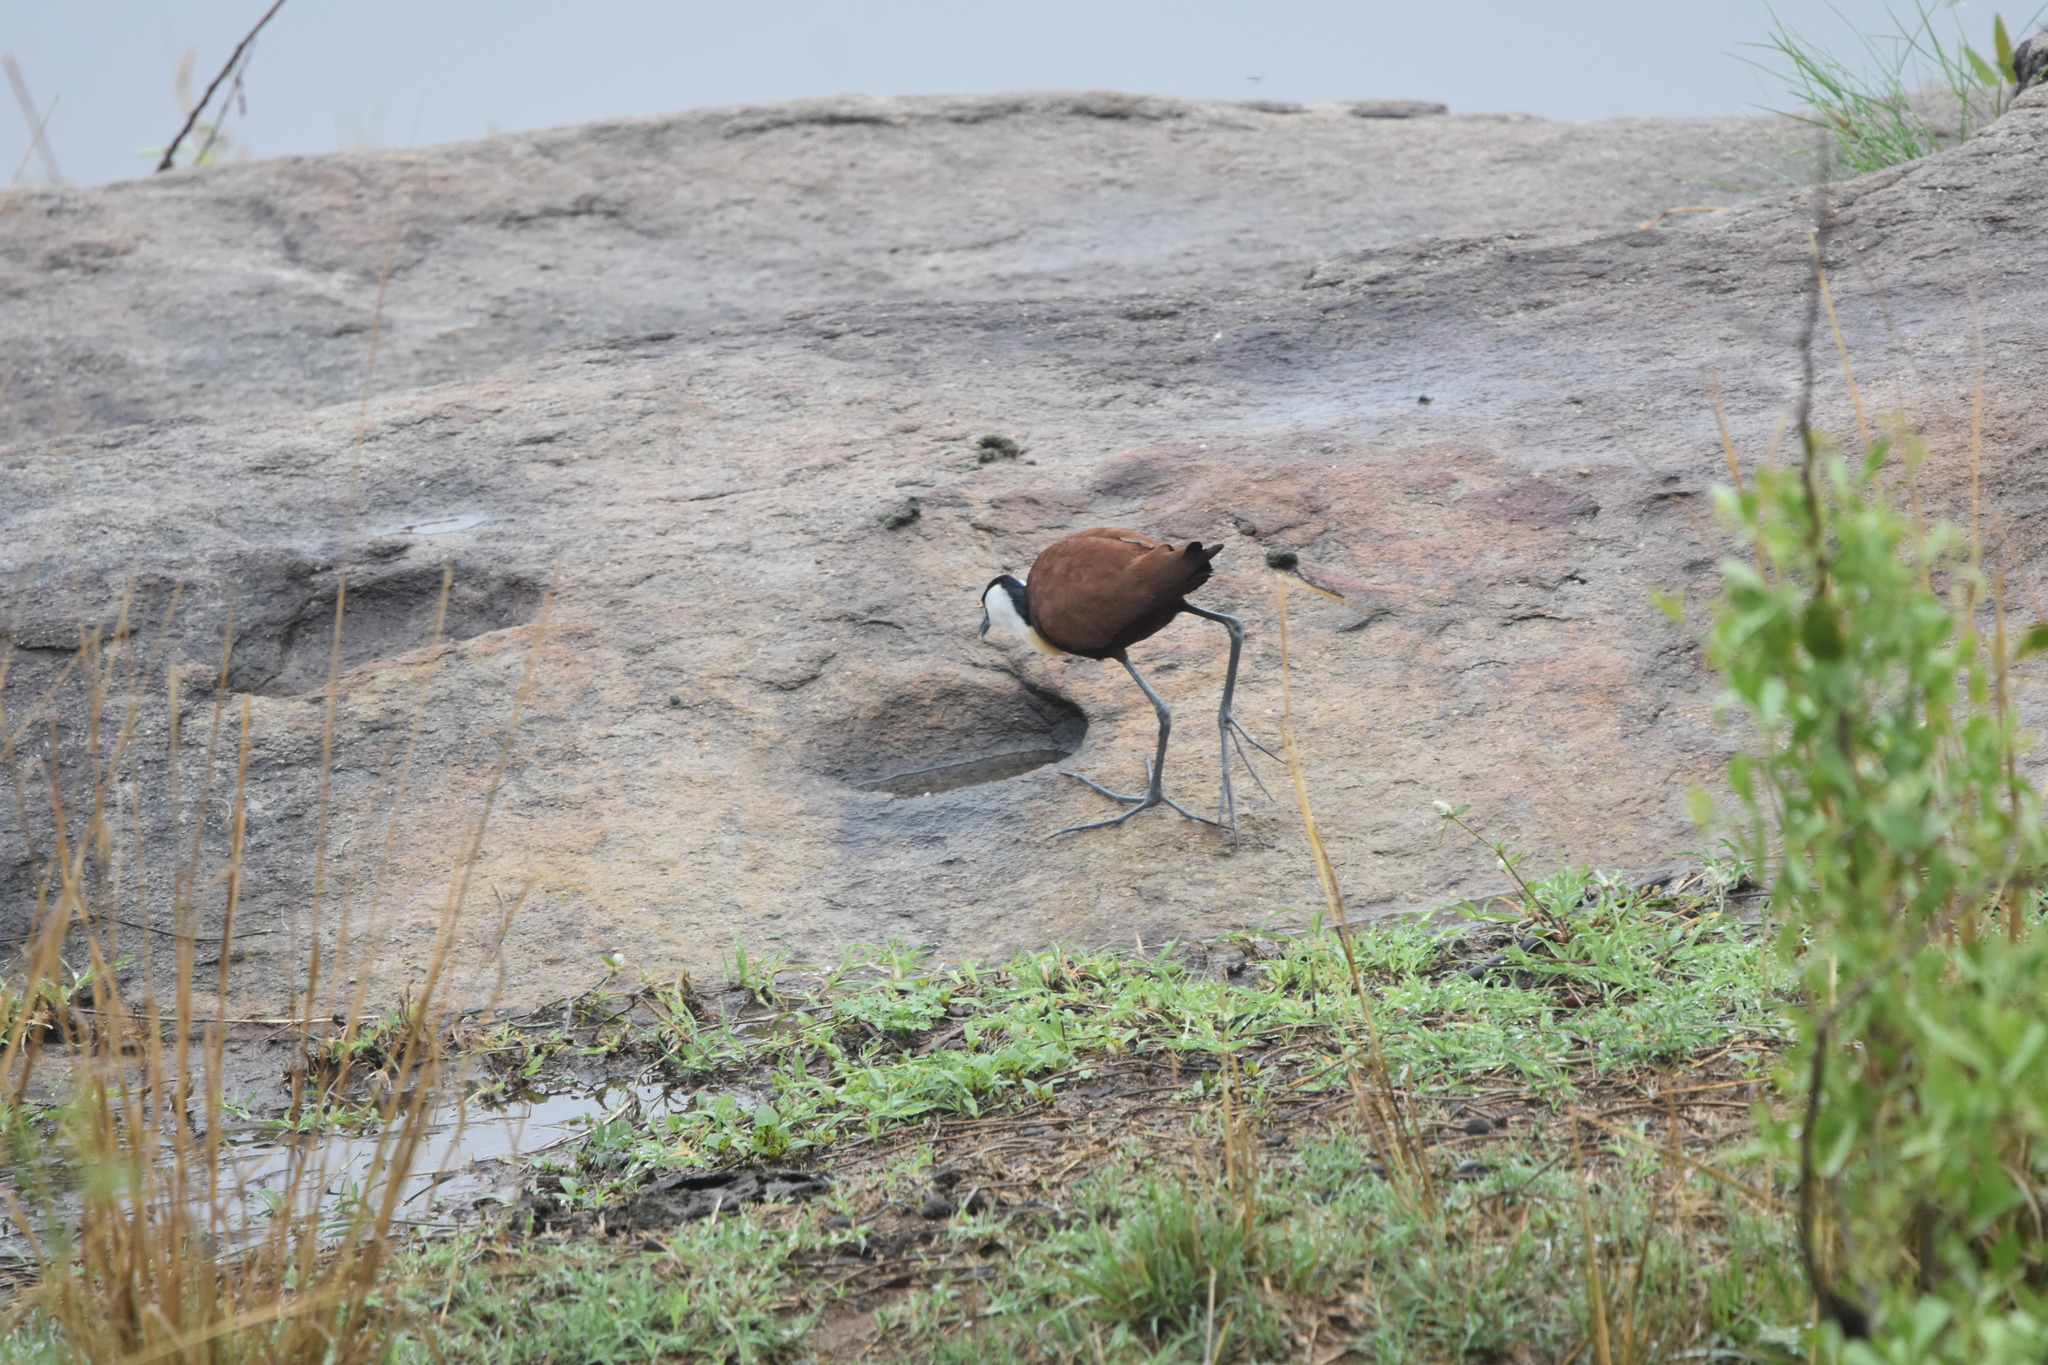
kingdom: Animalia
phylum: Chordata
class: Aves
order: Charadriiformes
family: Jacanidae
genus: Actophilornis
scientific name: Actophilornis africanus
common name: African jacana
